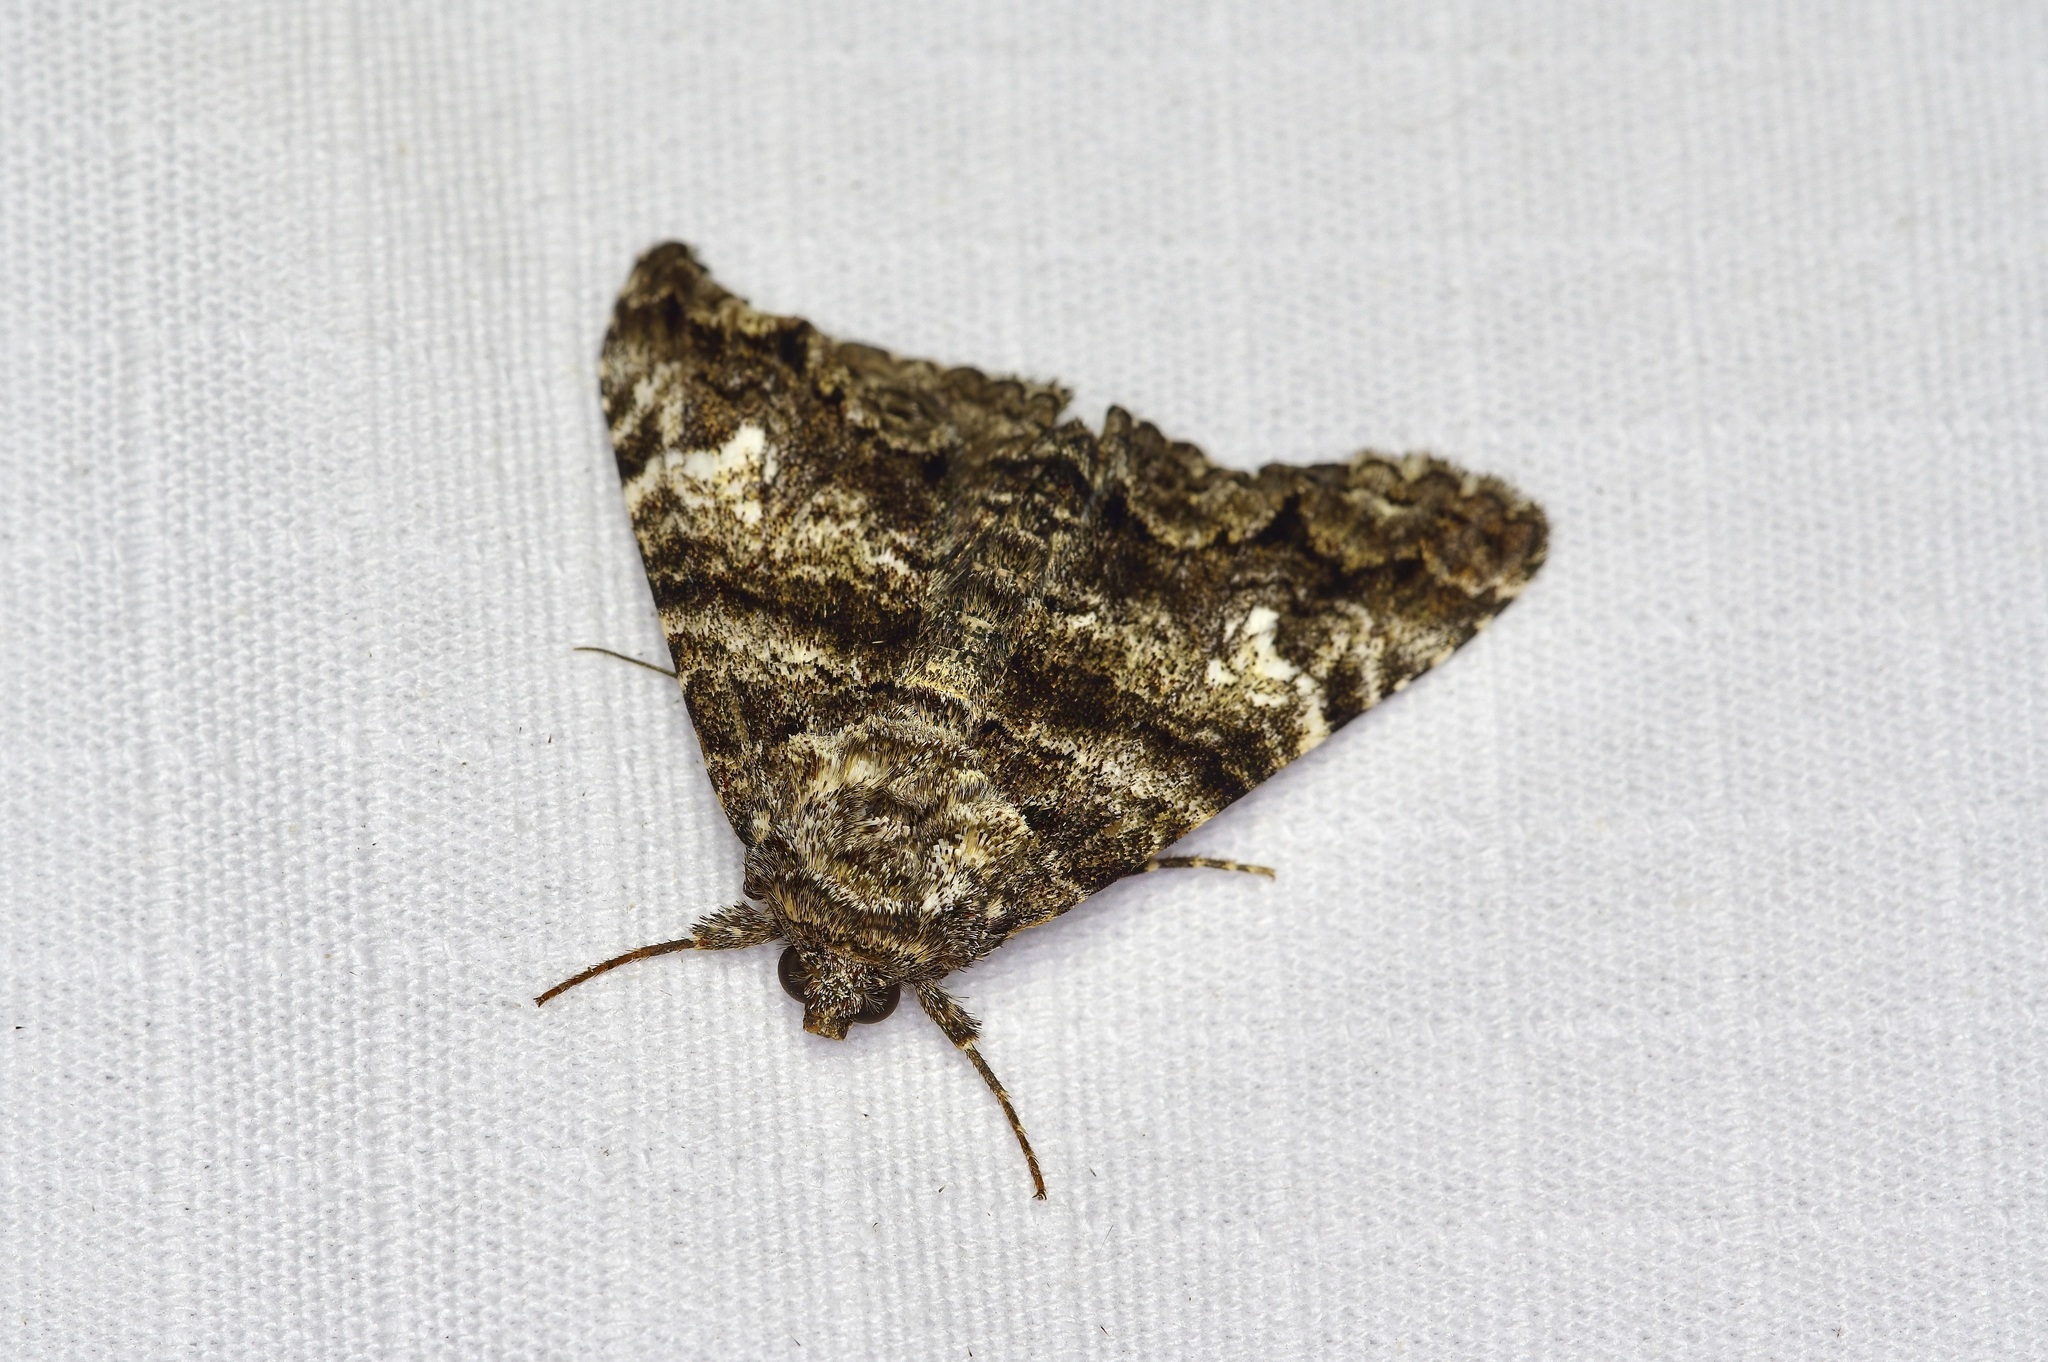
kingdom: Animalia
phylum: Arthropoda
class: Insecta
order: Lepidoptera
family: Erebidae
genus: Metria
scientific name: Metria amella
